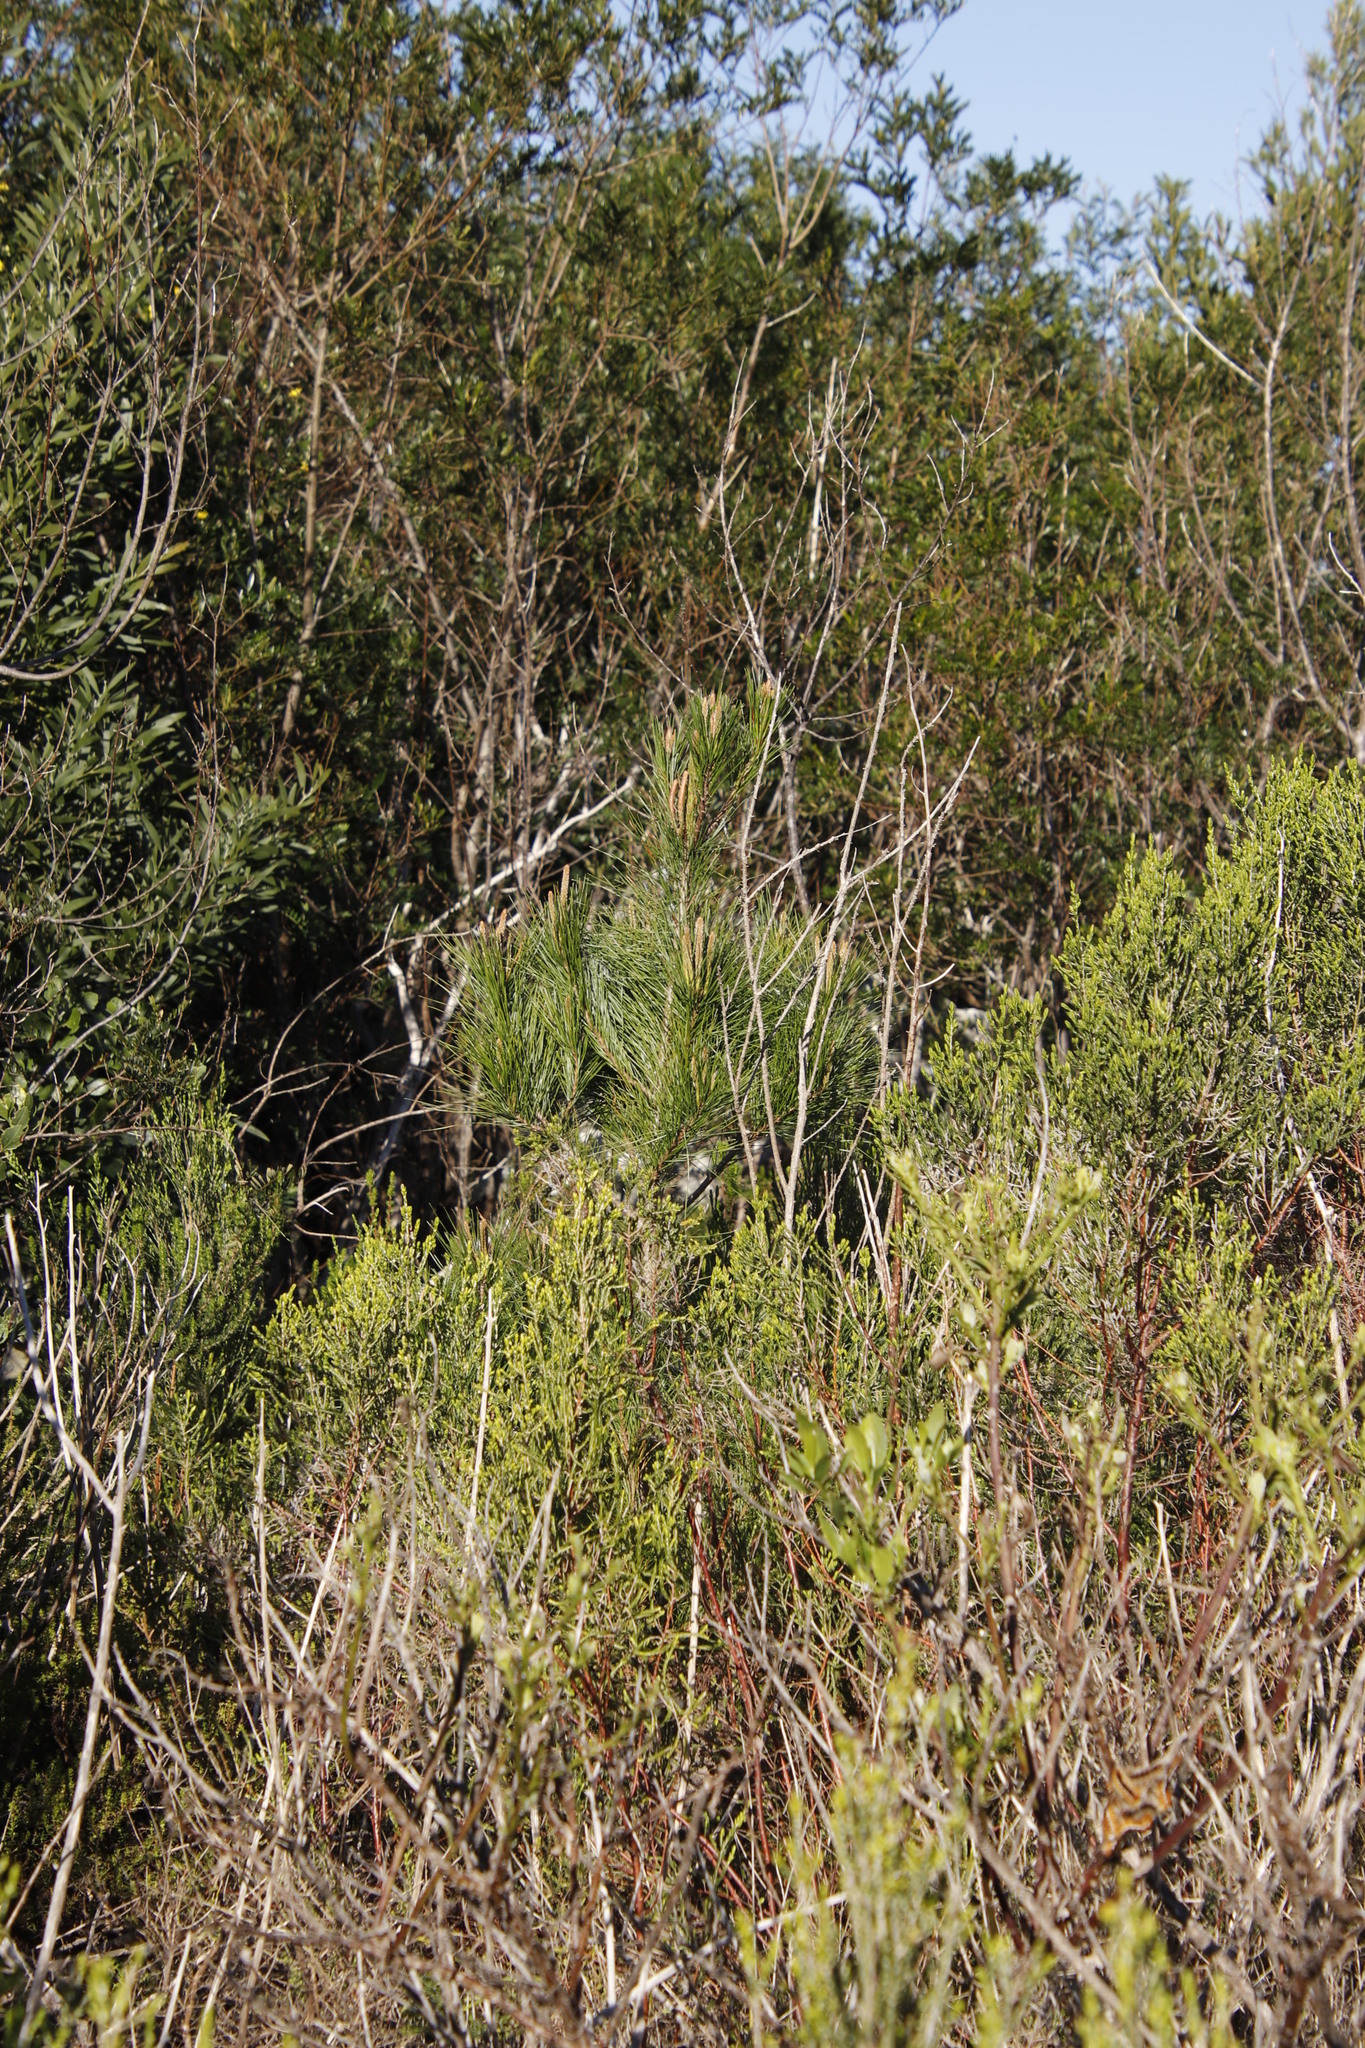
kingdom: Plantae
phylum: Tracheophyta
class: Pinopsida
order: Pinales
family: Pinaceae
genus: Pinus
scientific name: Pinus pinaster
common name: Maritime pine
